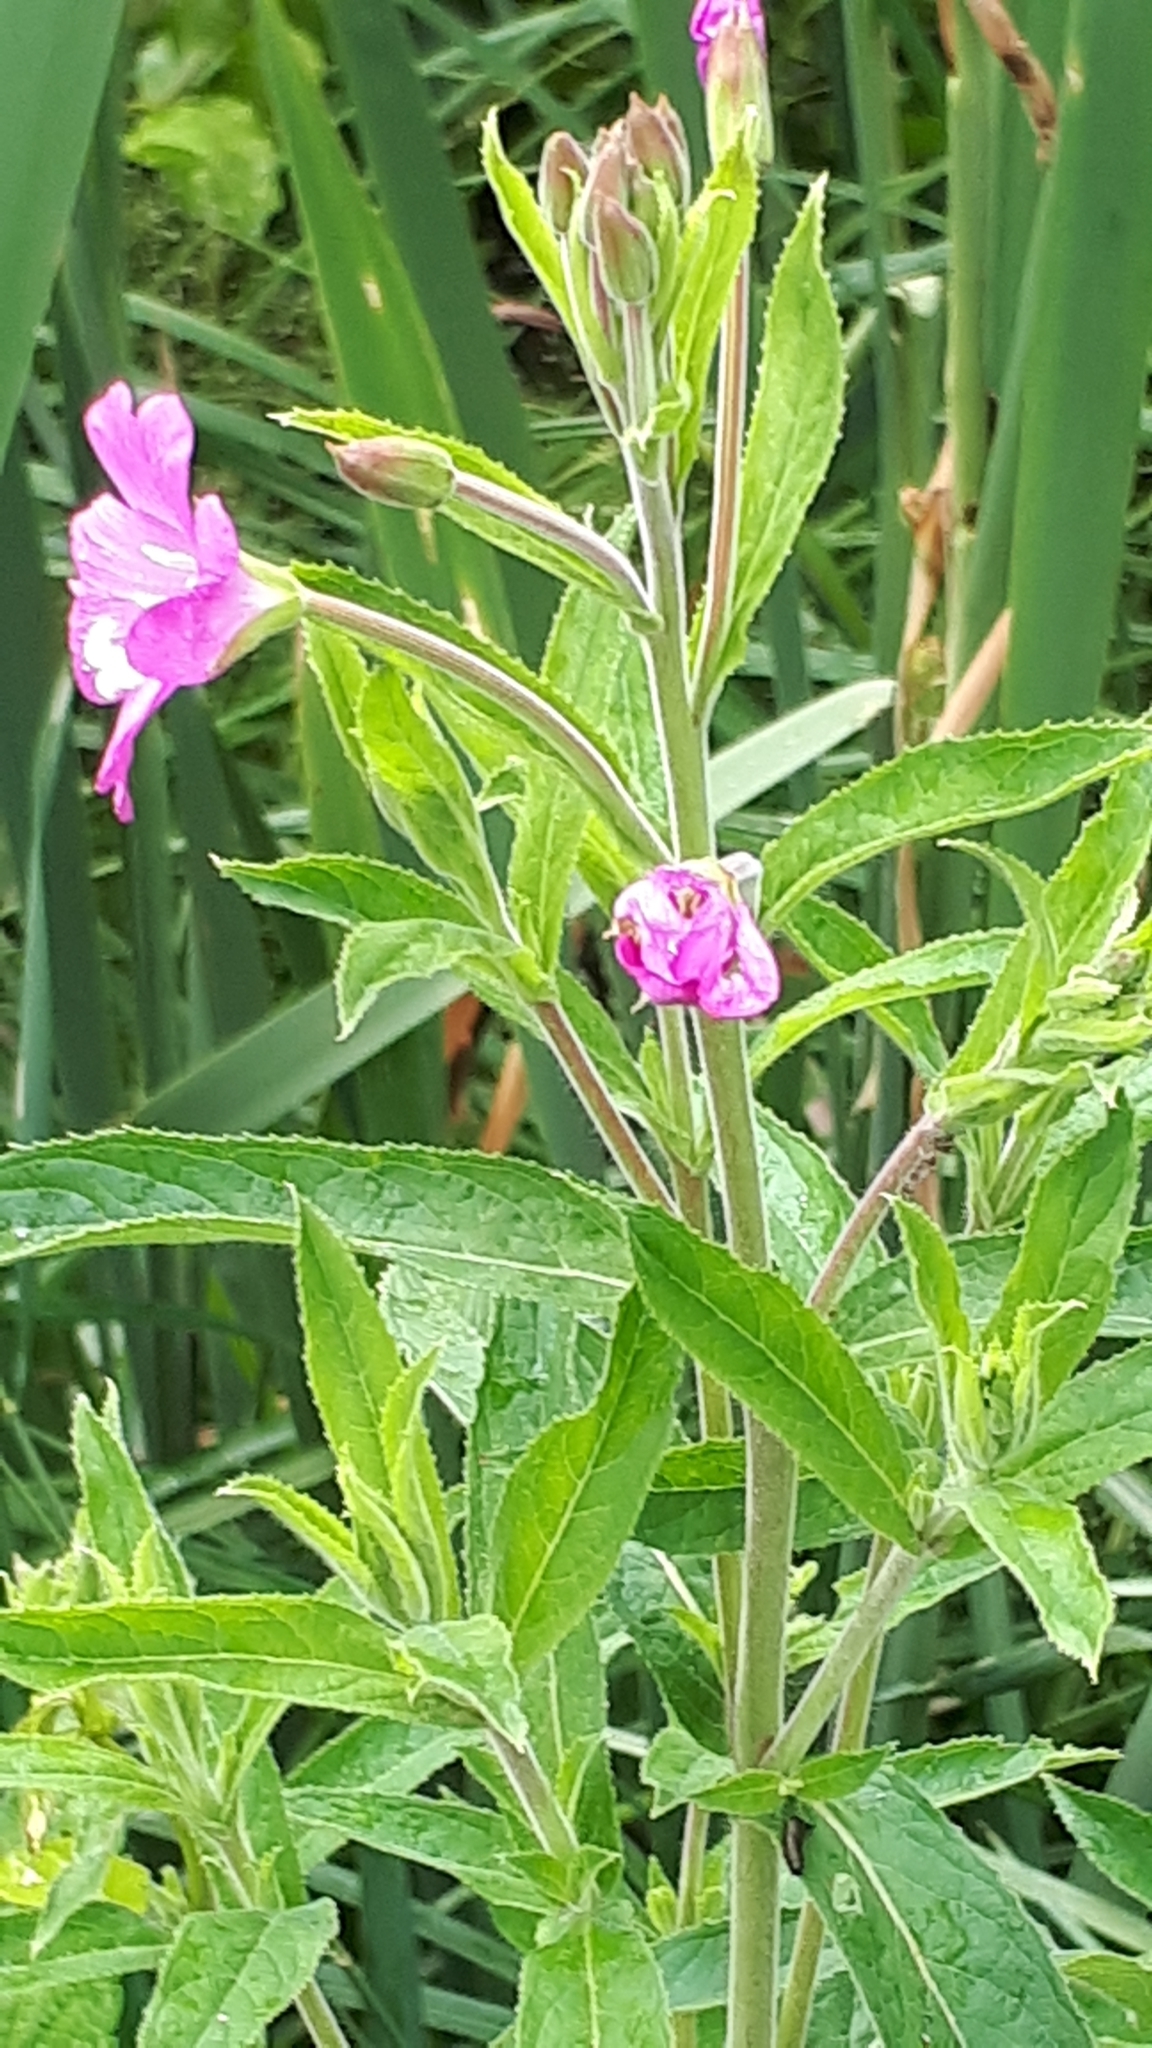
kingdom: Plantae
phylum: Tracheophyta
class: Magnoliopsida
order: Myrtales
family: Onagraceae
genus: Epilobium
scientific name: Epilobium hirsutum
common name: Great willowherb
